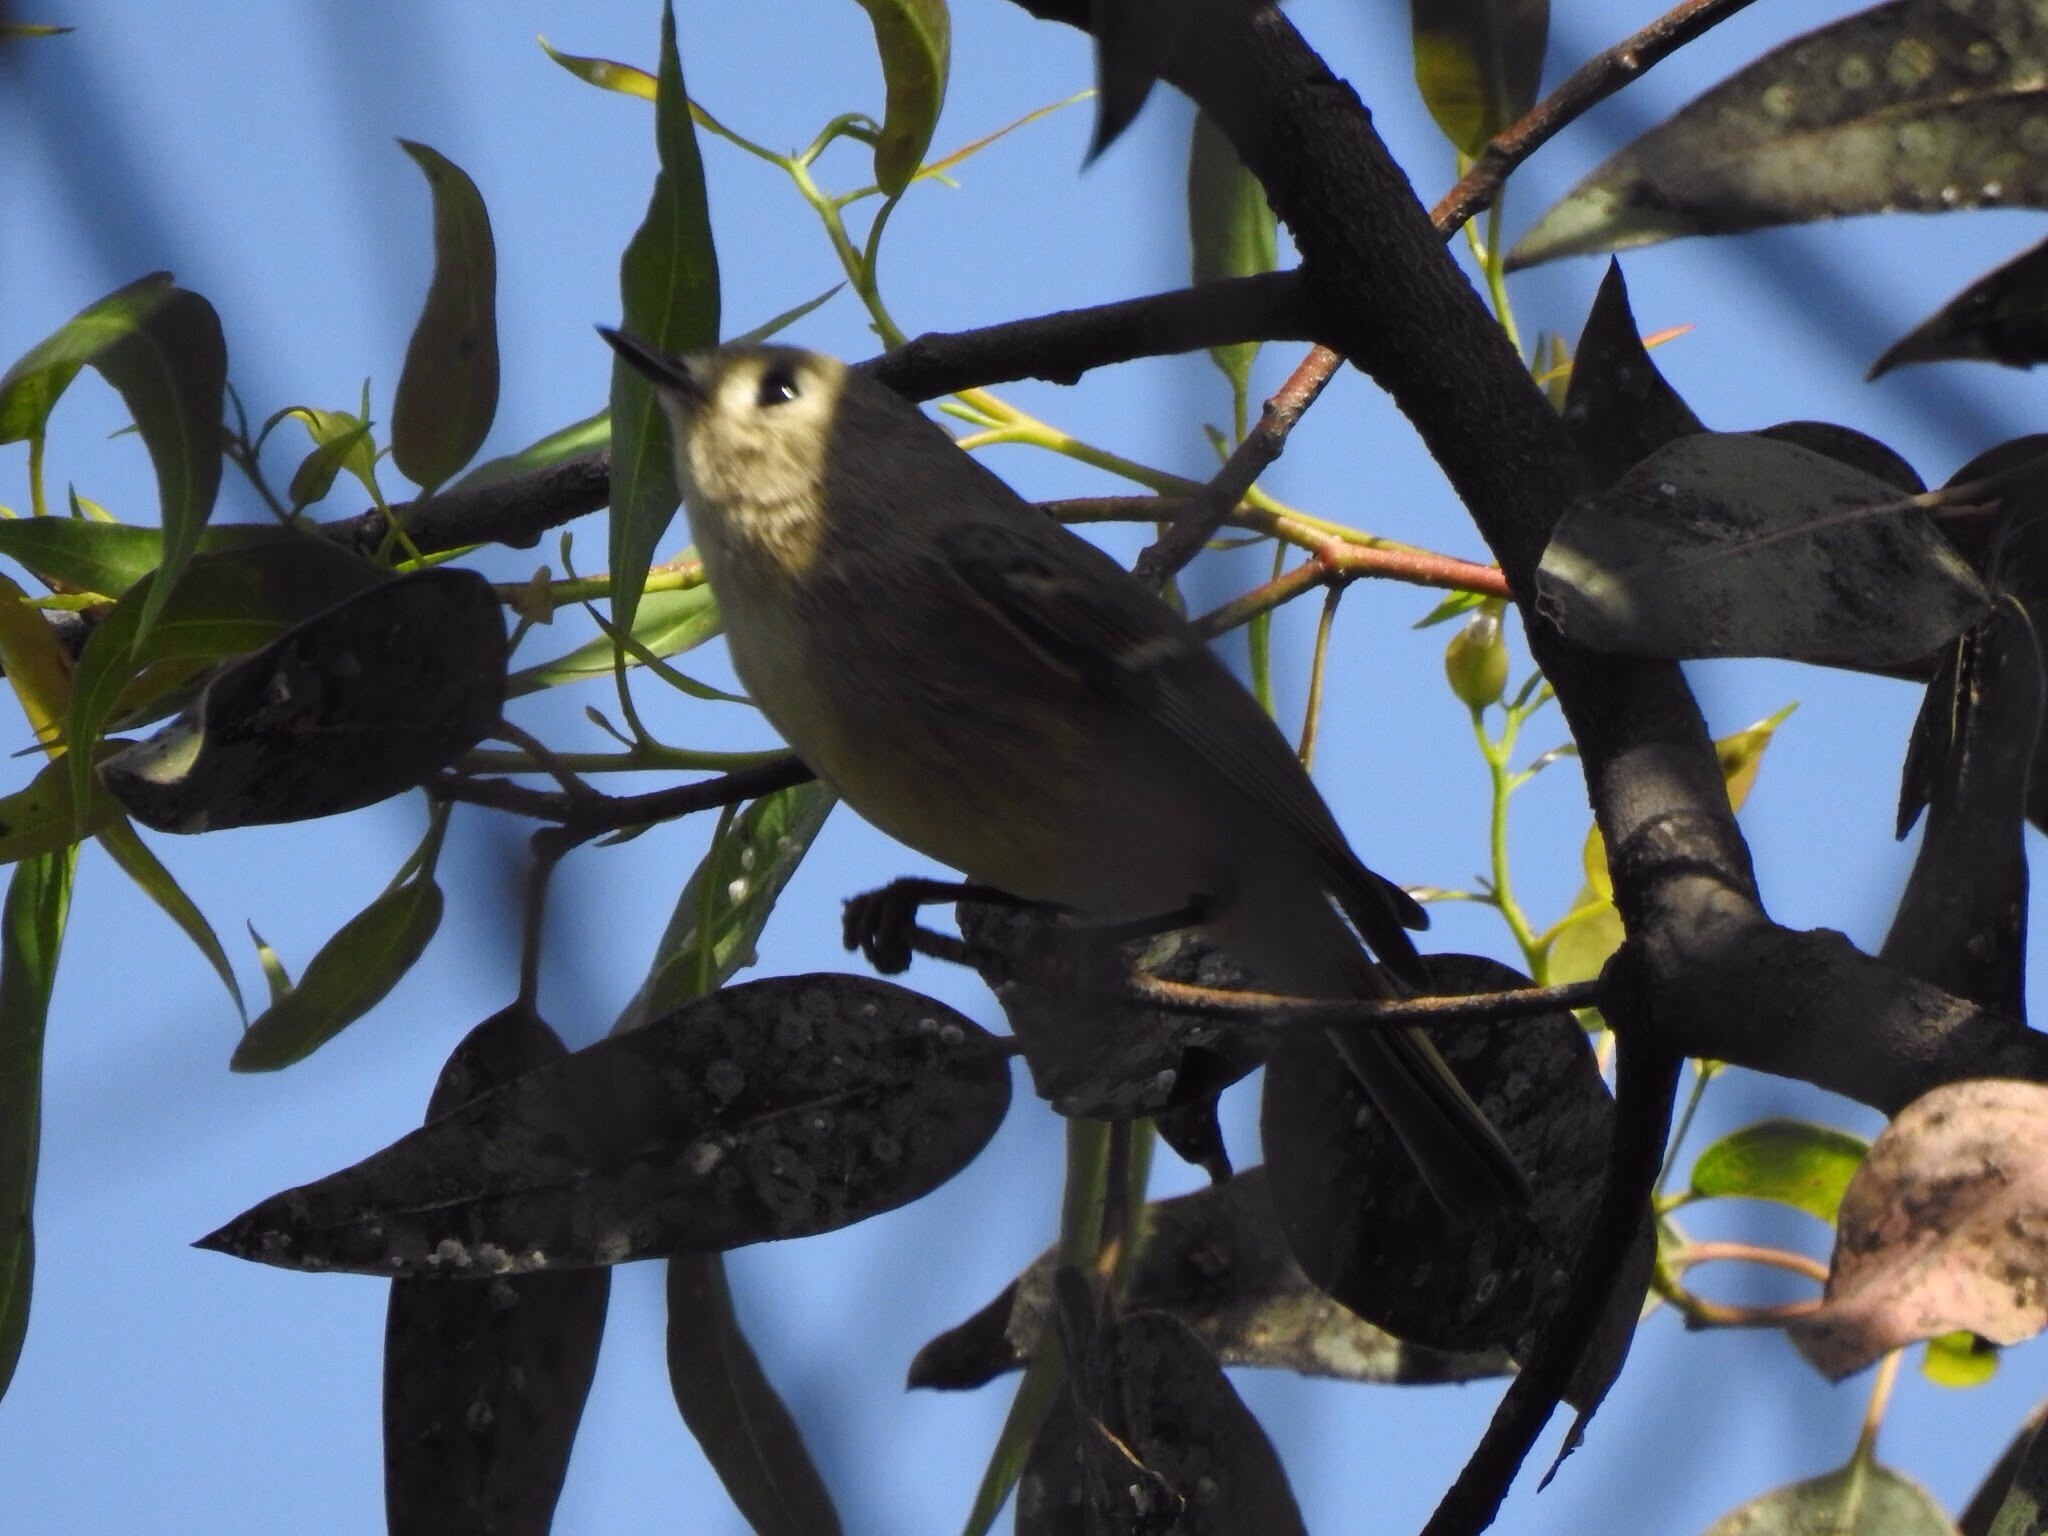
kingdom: Animalia
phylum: Chordata
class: Aves
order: Passeriformes
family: Regulidae
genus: Regulus
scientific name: Regulus calendula
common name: Ruby-crowned kinglet
